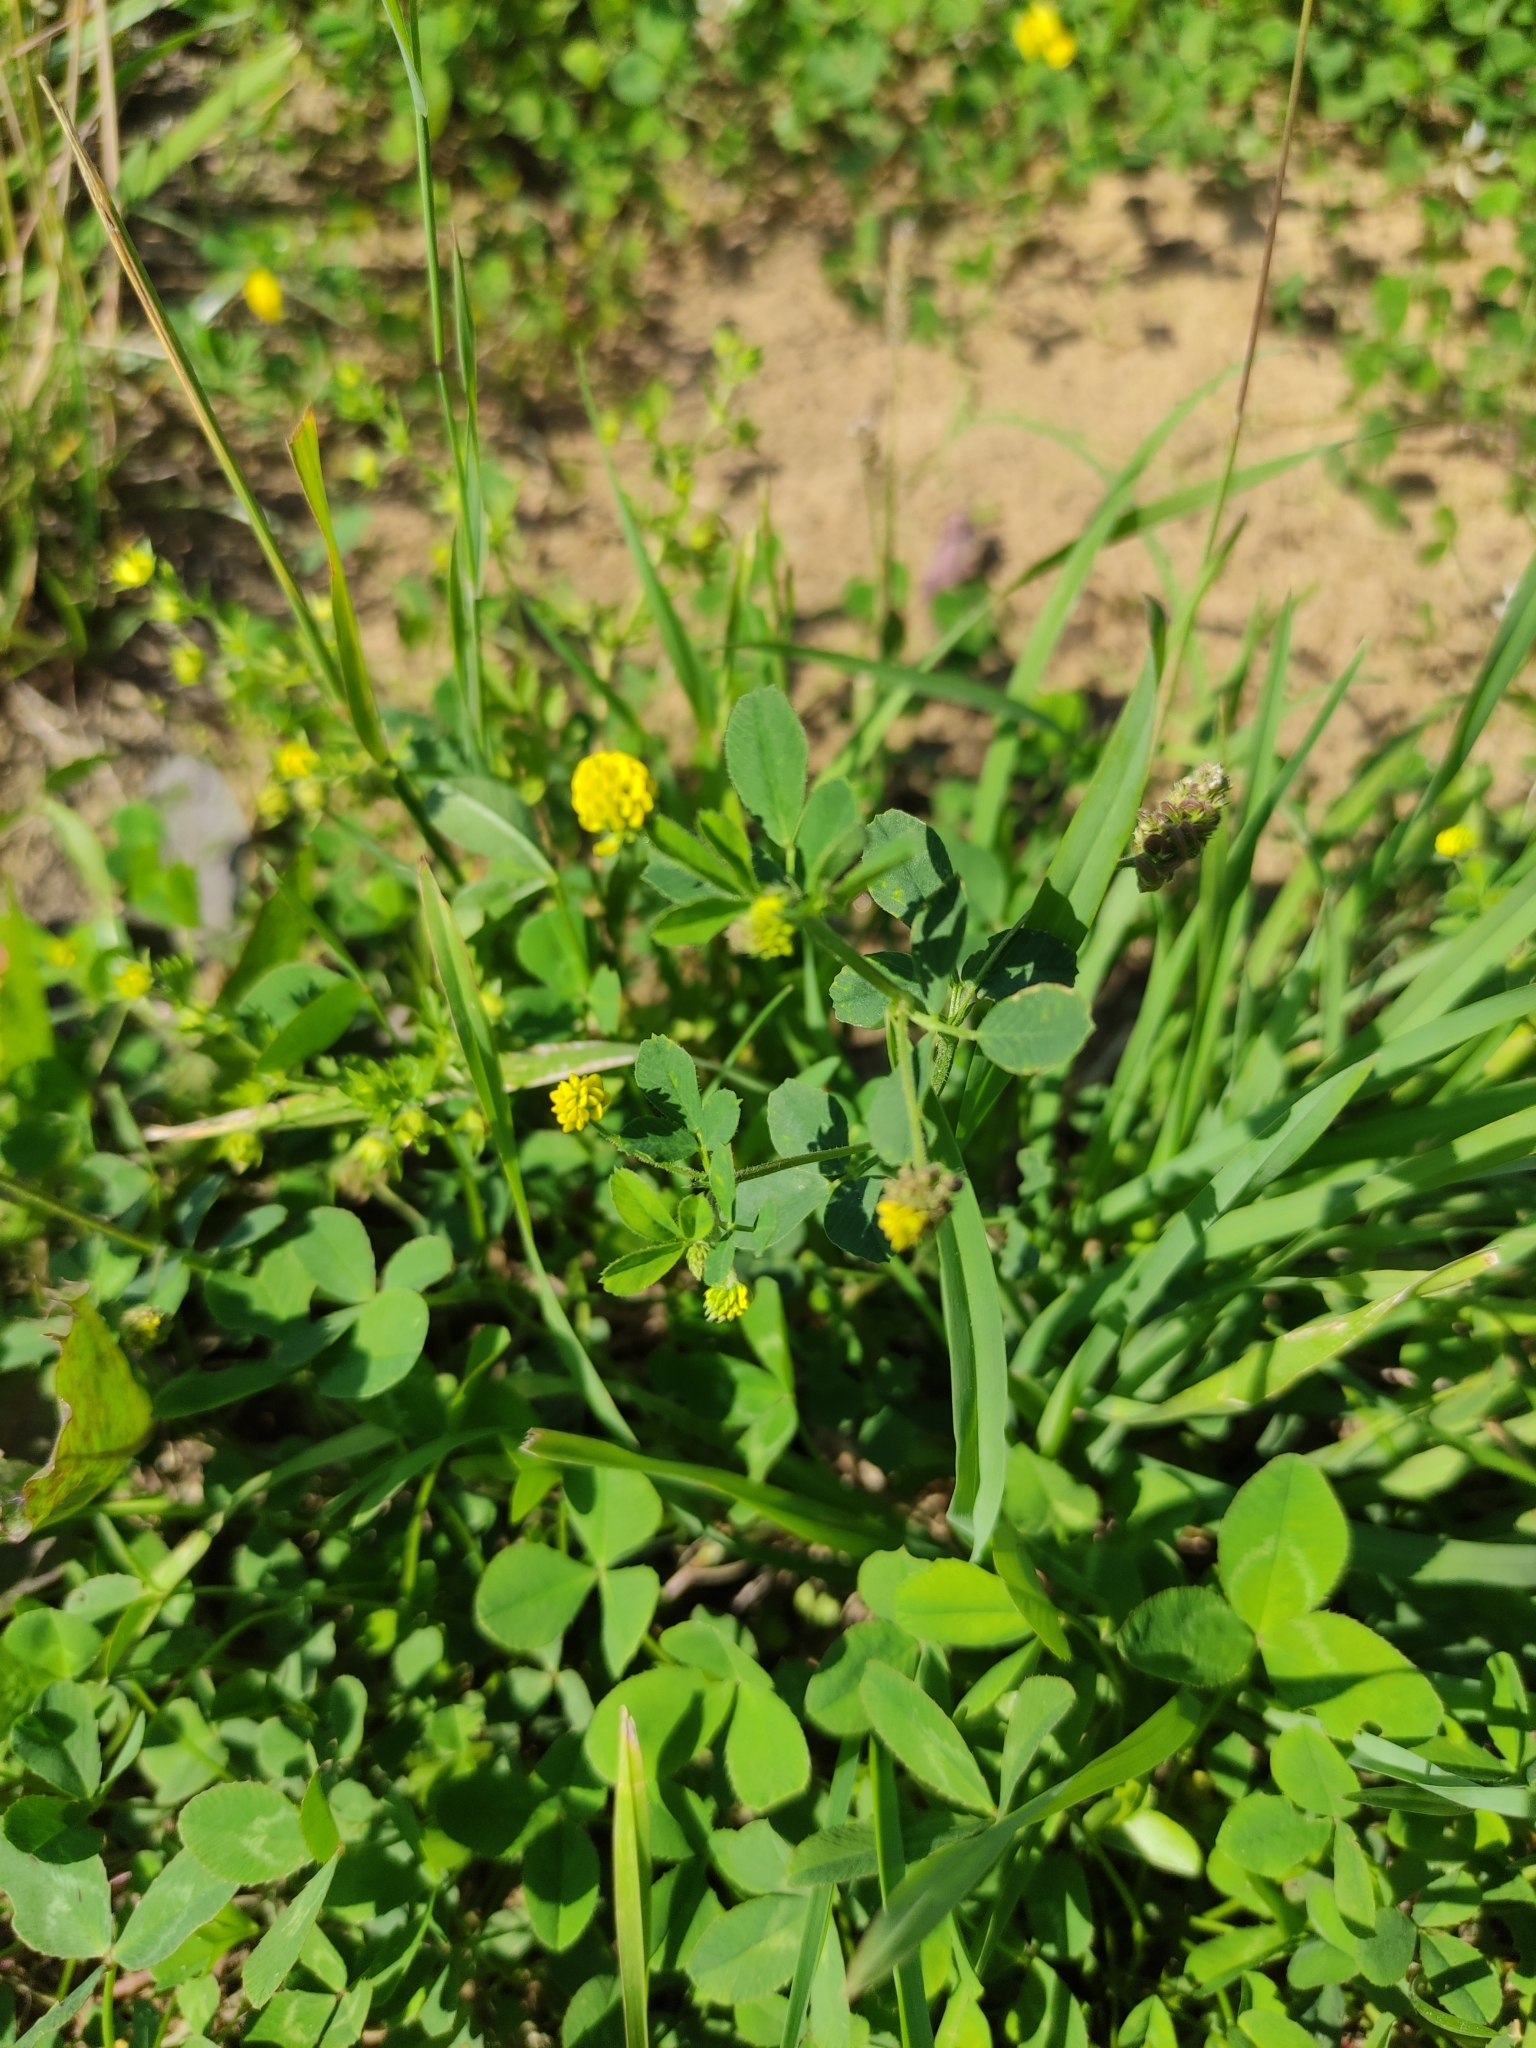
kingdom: Plantae
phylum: Tracheophyta
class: Magnoliopsida
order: Fabales
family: Fabaceae
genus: Medicago
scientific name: Medicago lupulina
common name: Black medick
